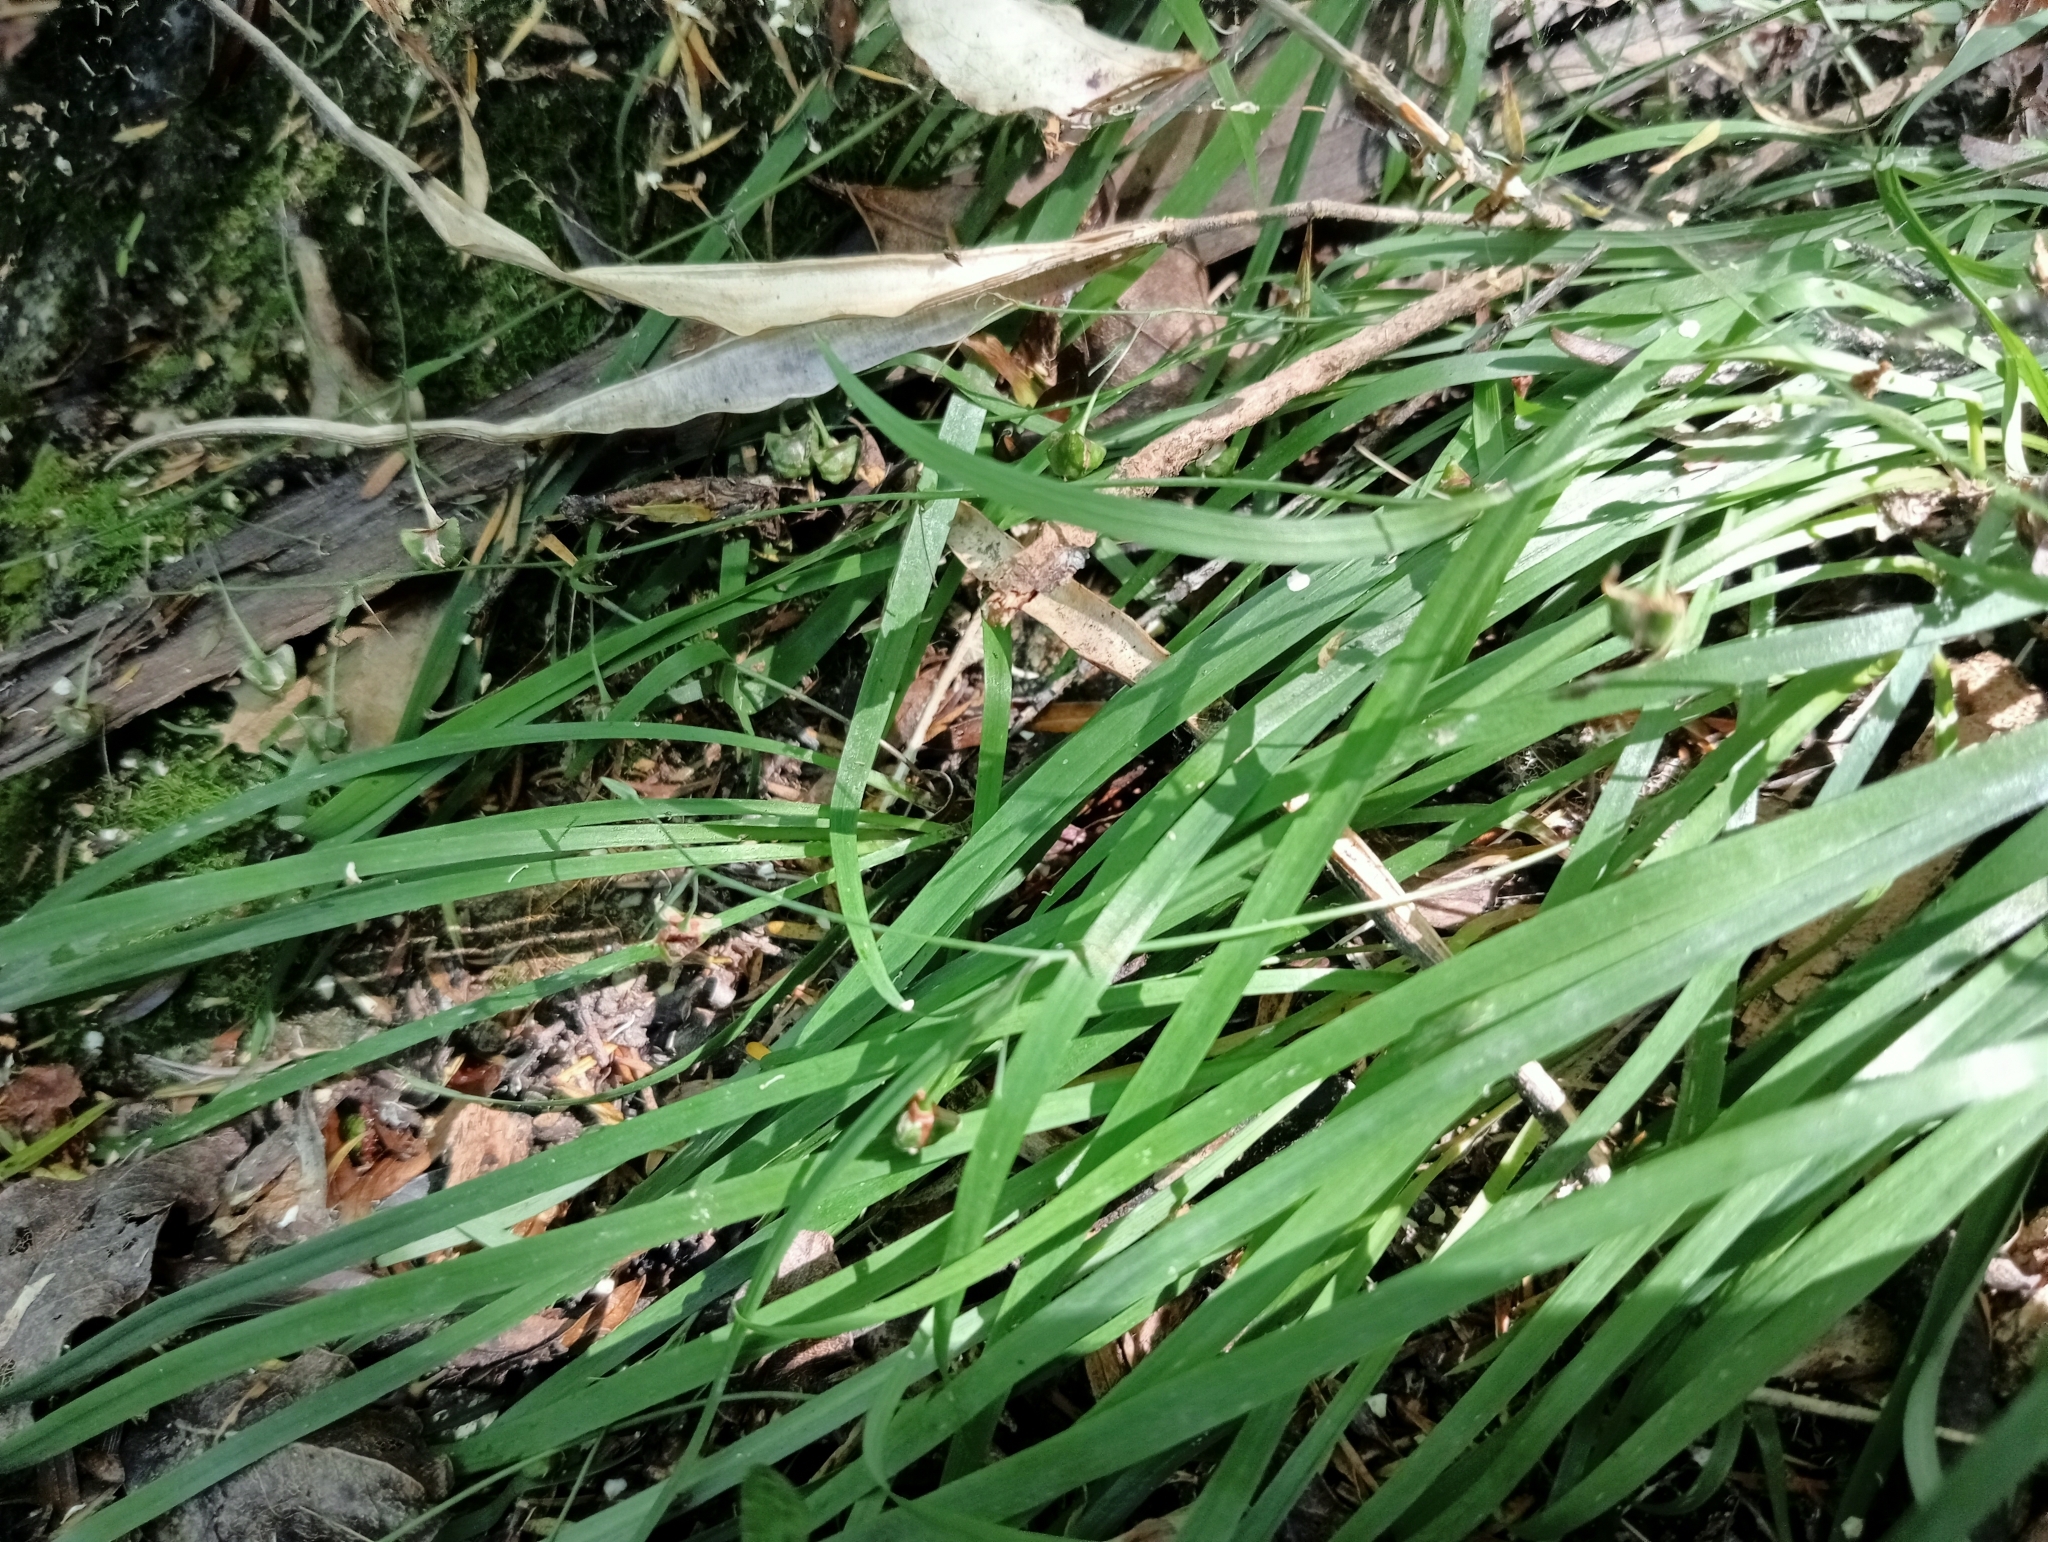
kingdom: Plantae
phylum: Tracheophyta
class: Liliopsida
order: Asparagales
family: Asparagaceae
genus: Arthropodium
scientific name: Arthropodium candidum
